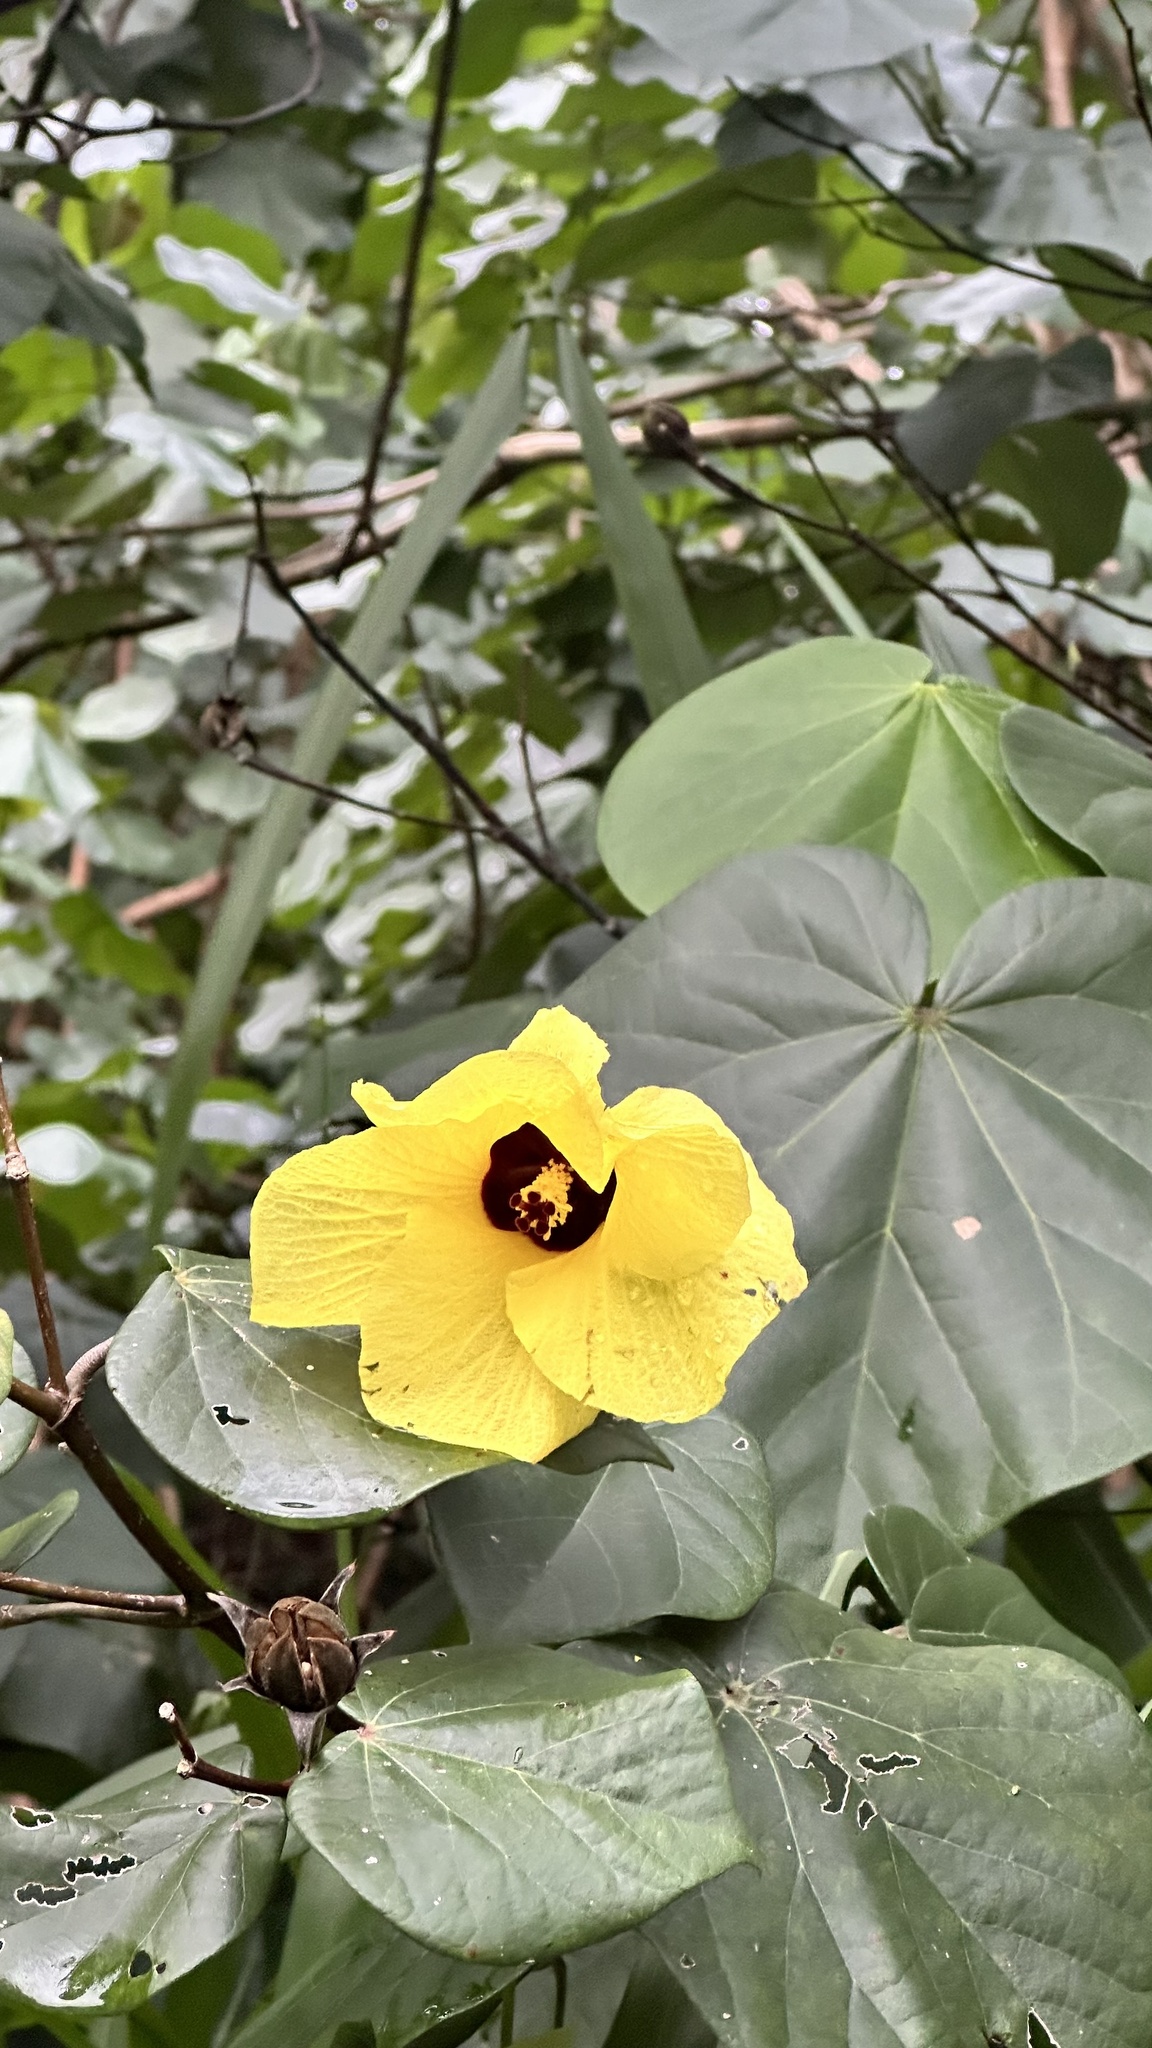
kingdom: Plantae
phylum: Tracheophyta
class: Magnoliopsida
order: Malvales
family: Malvaceae
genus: Talipariti
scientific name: Talipariti tiliaceum
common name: Sea hibiscus
